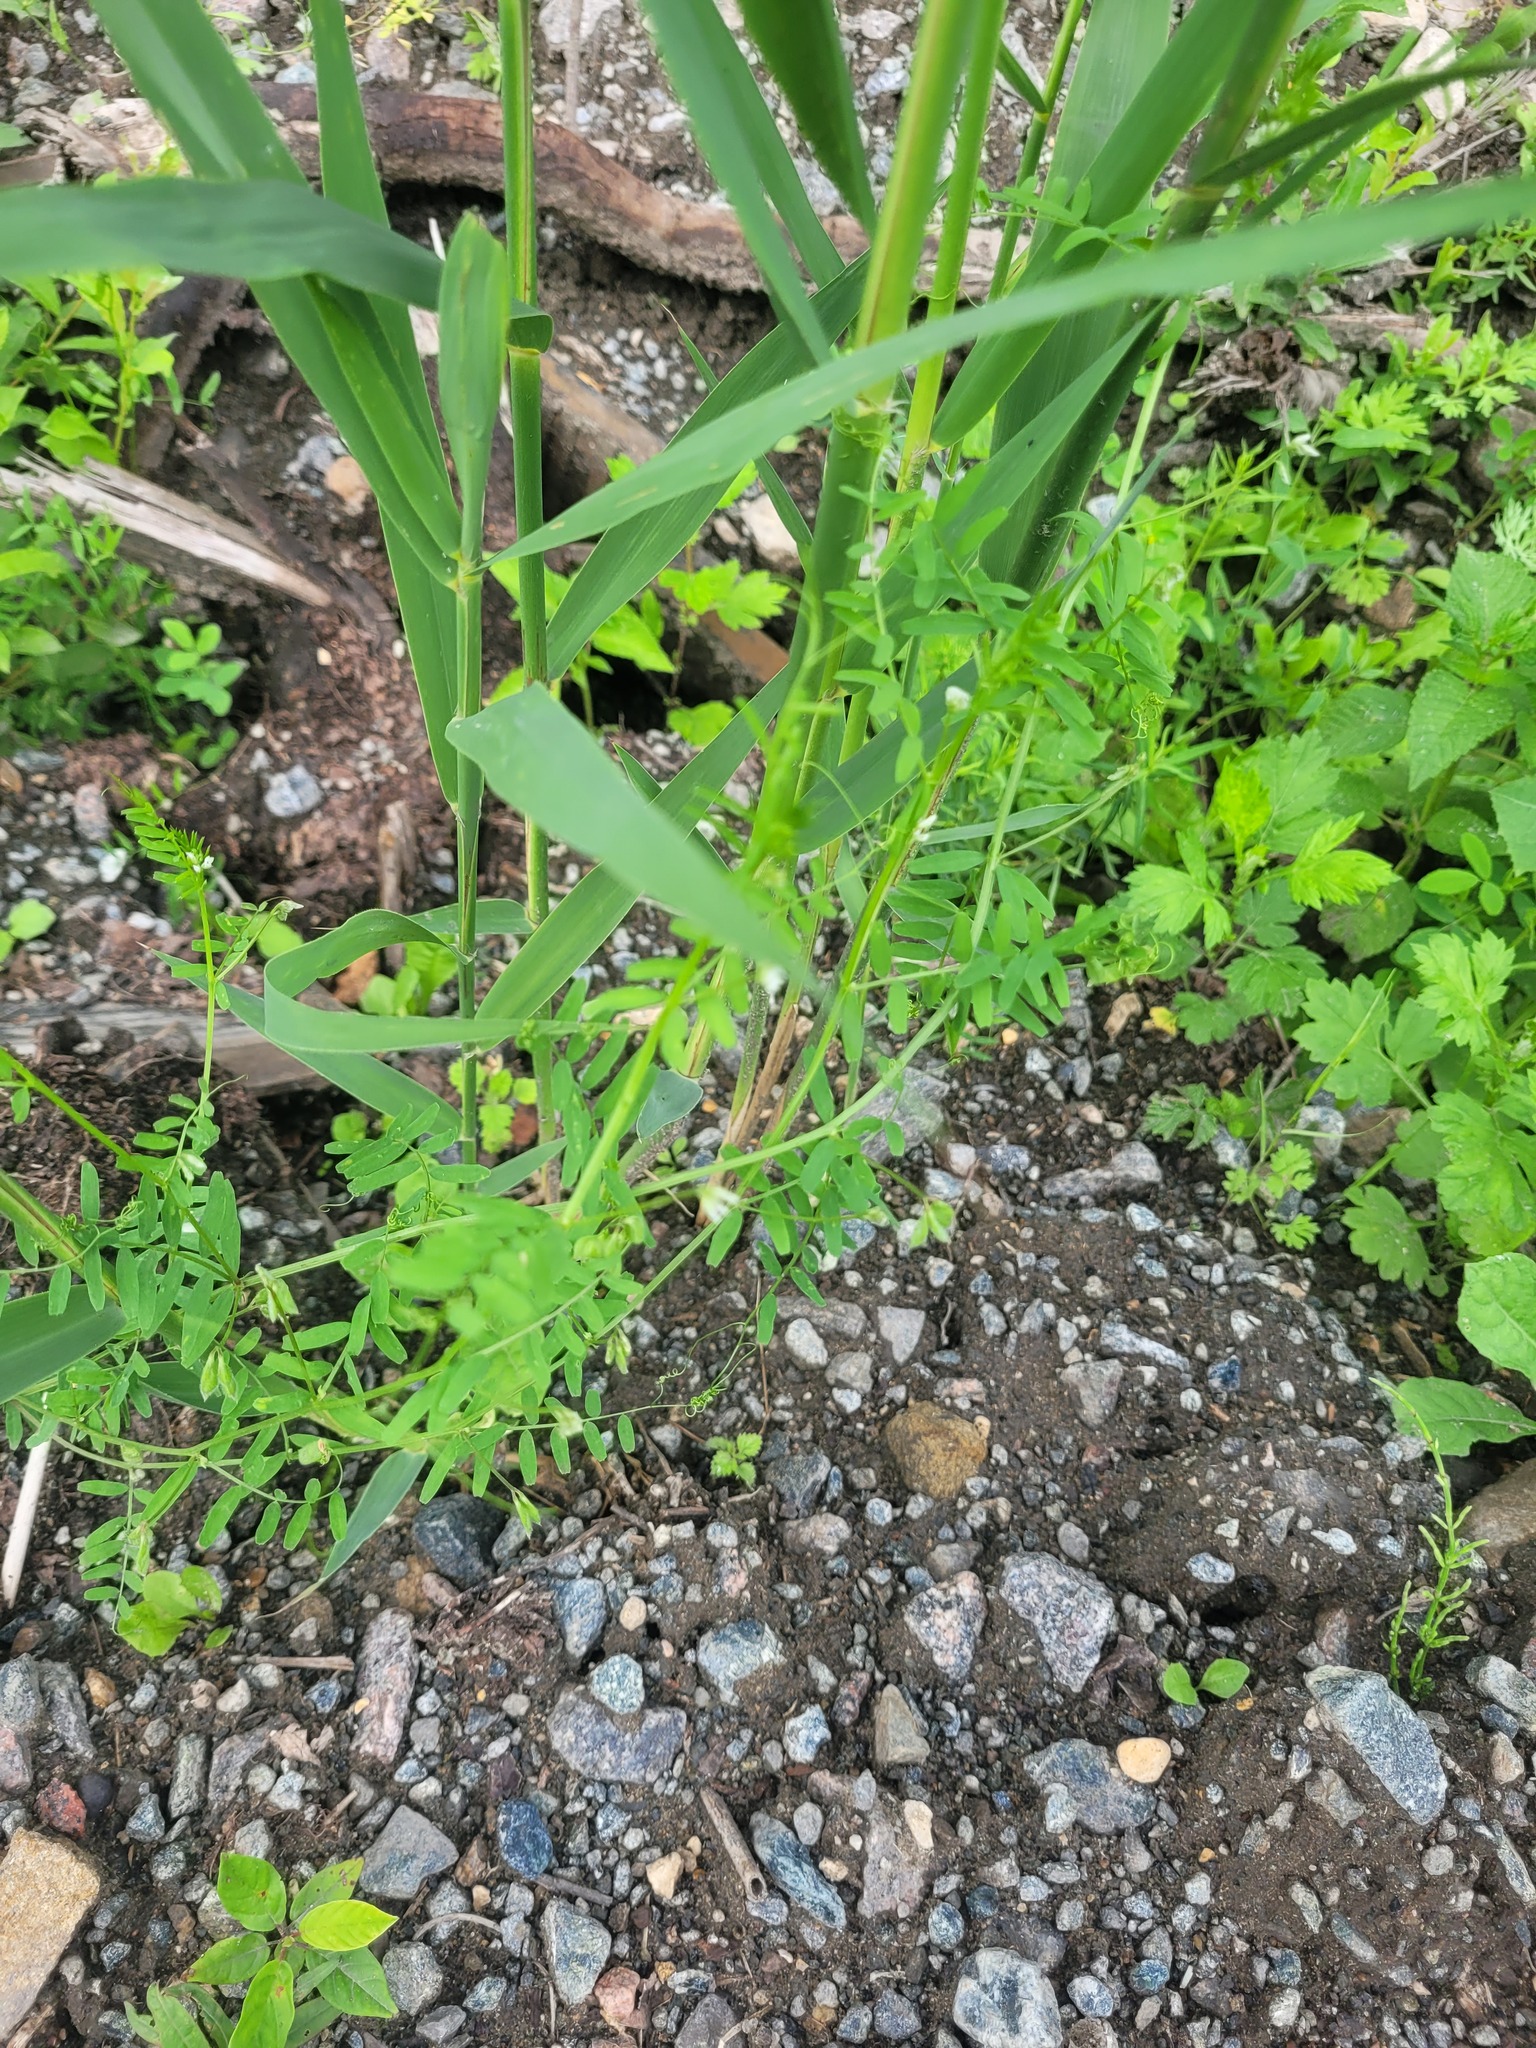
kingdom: Plantae
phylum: Tracheophyta
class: Magnoliopsida
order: Fabales
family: Fabaceae
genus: Vicia
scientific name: Vicia hirsuta
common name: Tiny vetch
